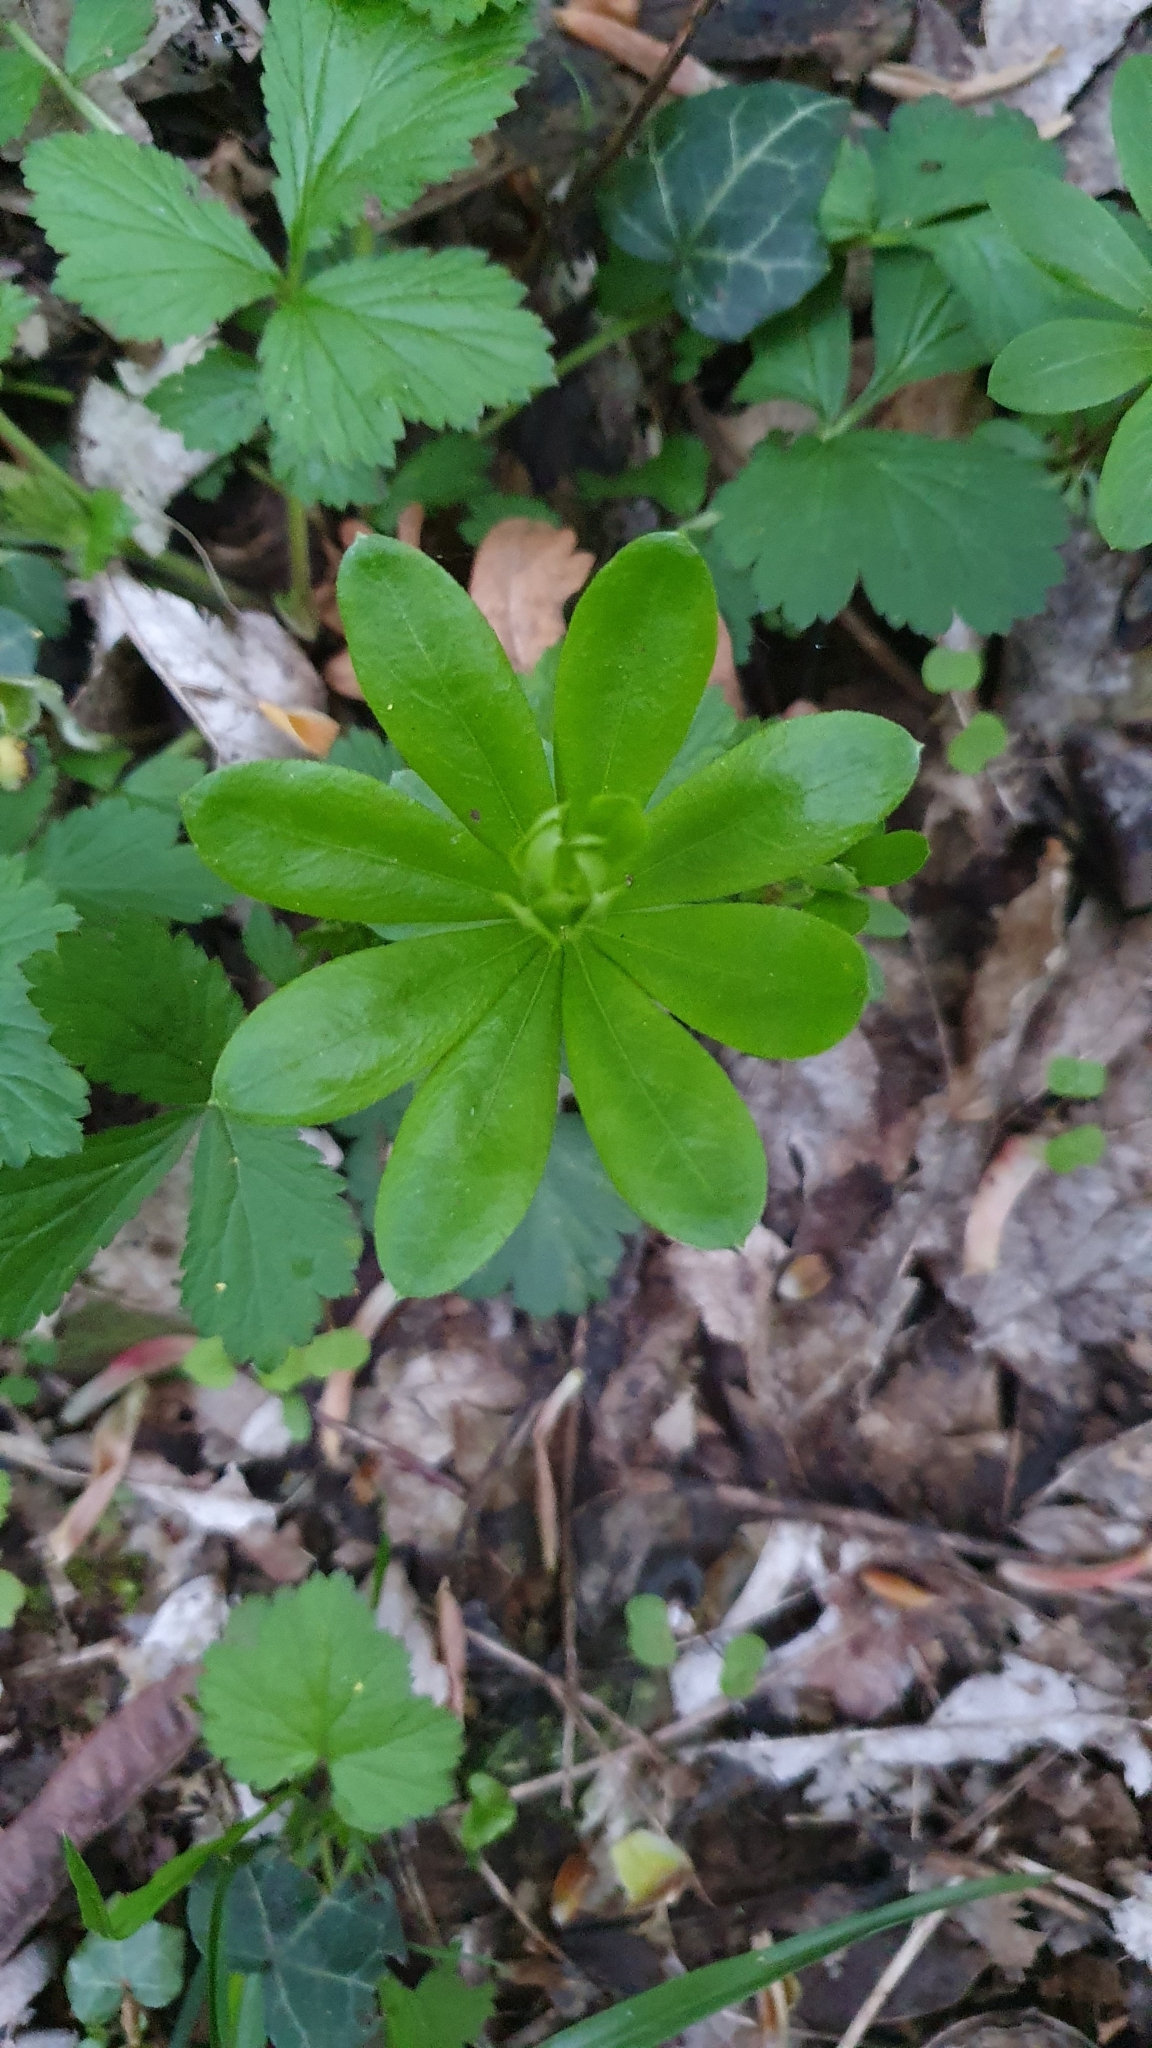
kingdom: Plantae
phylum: Tracheophyta
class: Magnoliopsida
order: Gentianales
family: Rubiaceae
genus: Galium
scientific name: Galium odoratum
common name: Sweet woodruff
